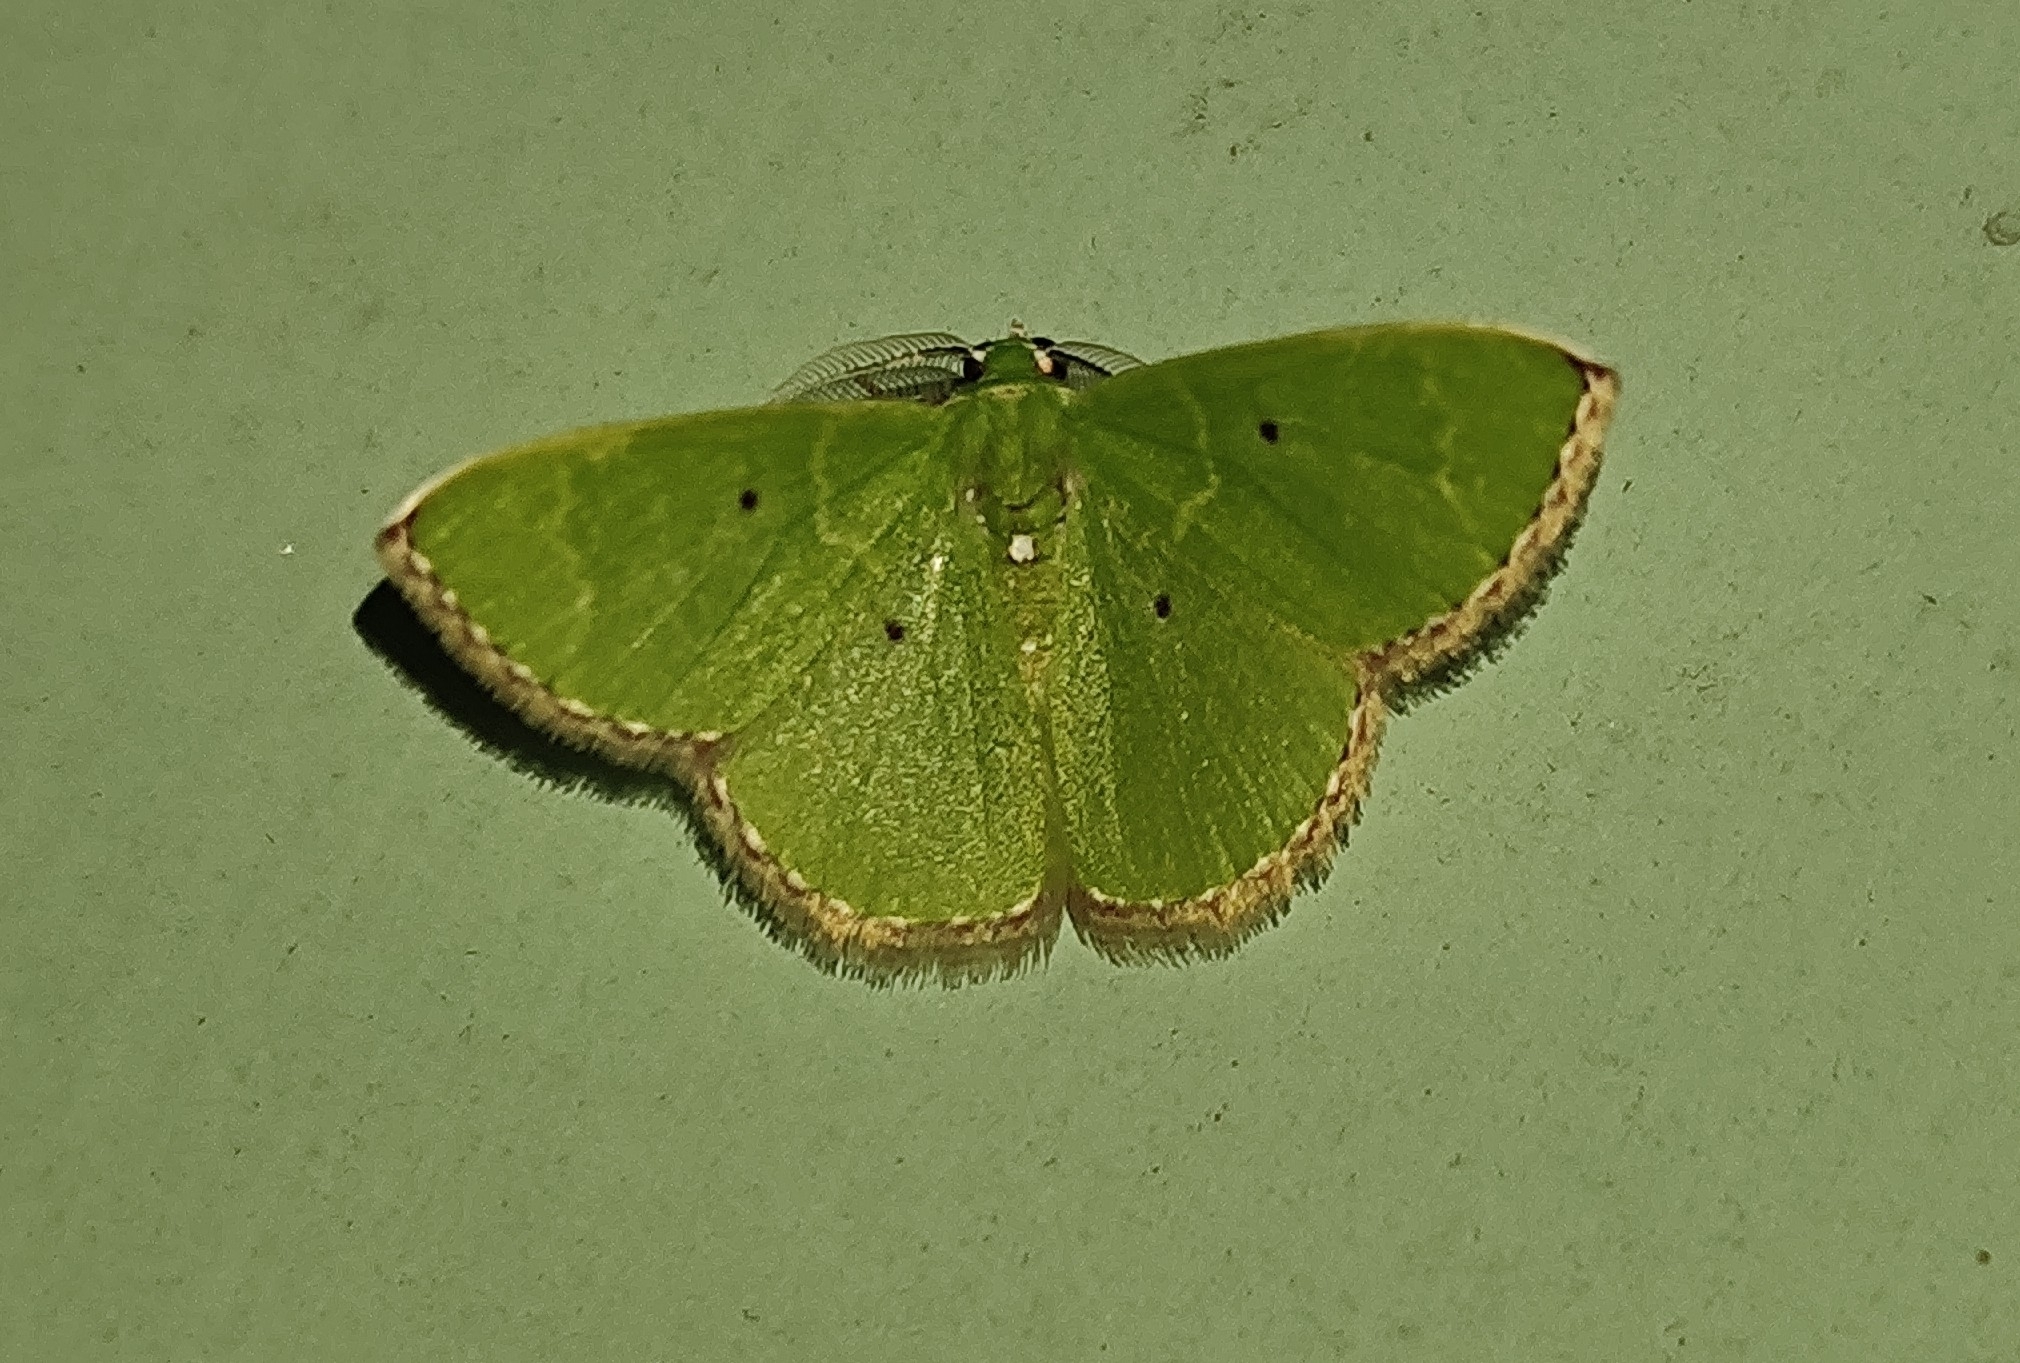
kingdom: Animalia
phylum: Arthropoda
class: Insecta
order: Lepidoptera
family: Geometridae
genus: Nemoria
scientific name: Nemoria lixaria
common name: Red-bordered emerald
